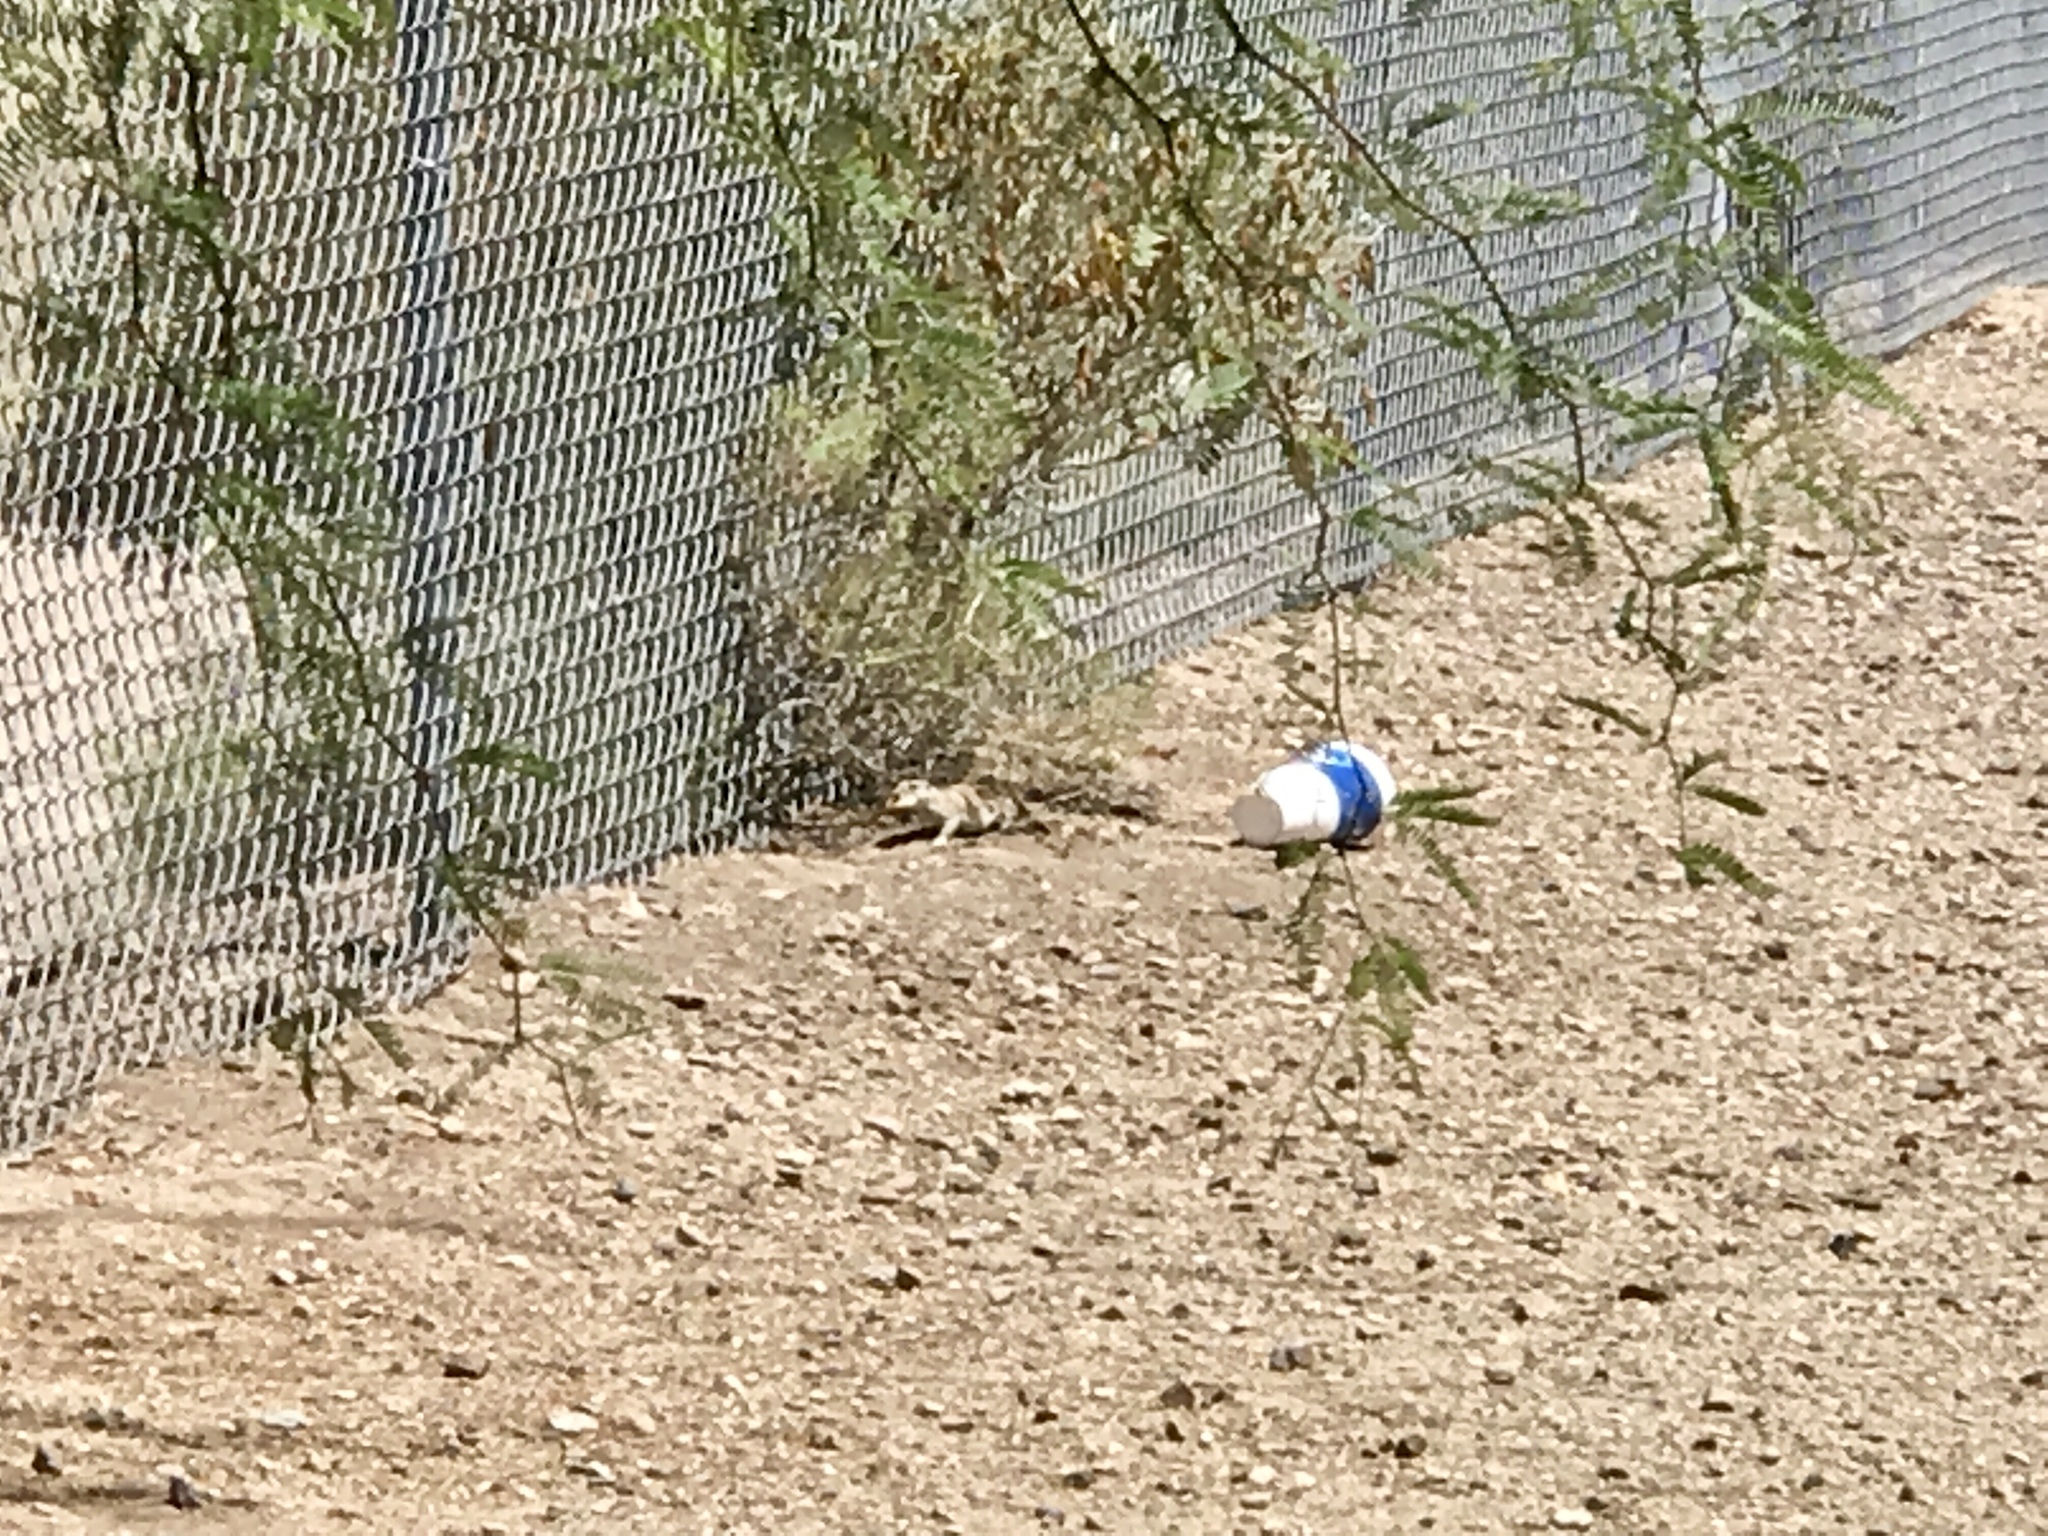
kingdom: Animalia
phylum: Chordata
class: Mammalia
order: Rodentia
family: Sciuridae
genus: Xerospermophilus
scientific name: Xerospermophilus tereticaudus
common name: Round-tailed ground squirrel
